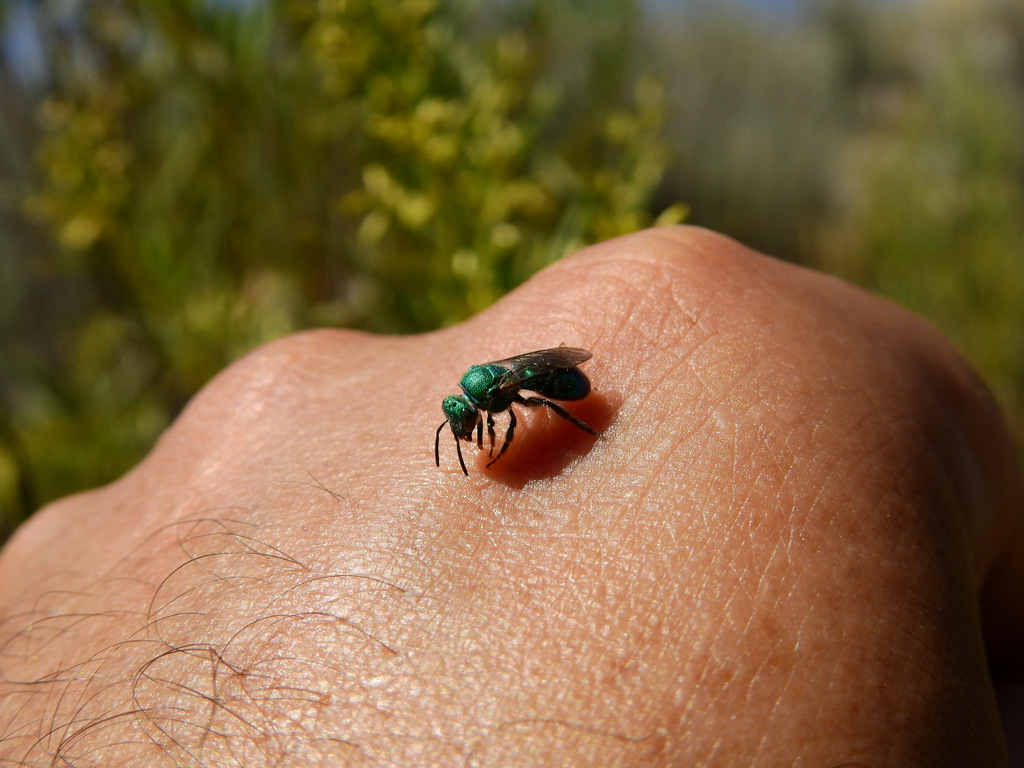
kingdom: Animalia
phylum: Arthropoda
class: Insecta
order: Hymenoptera
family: Halictidae
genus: Augochloropsis
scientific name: Augochloropsis
